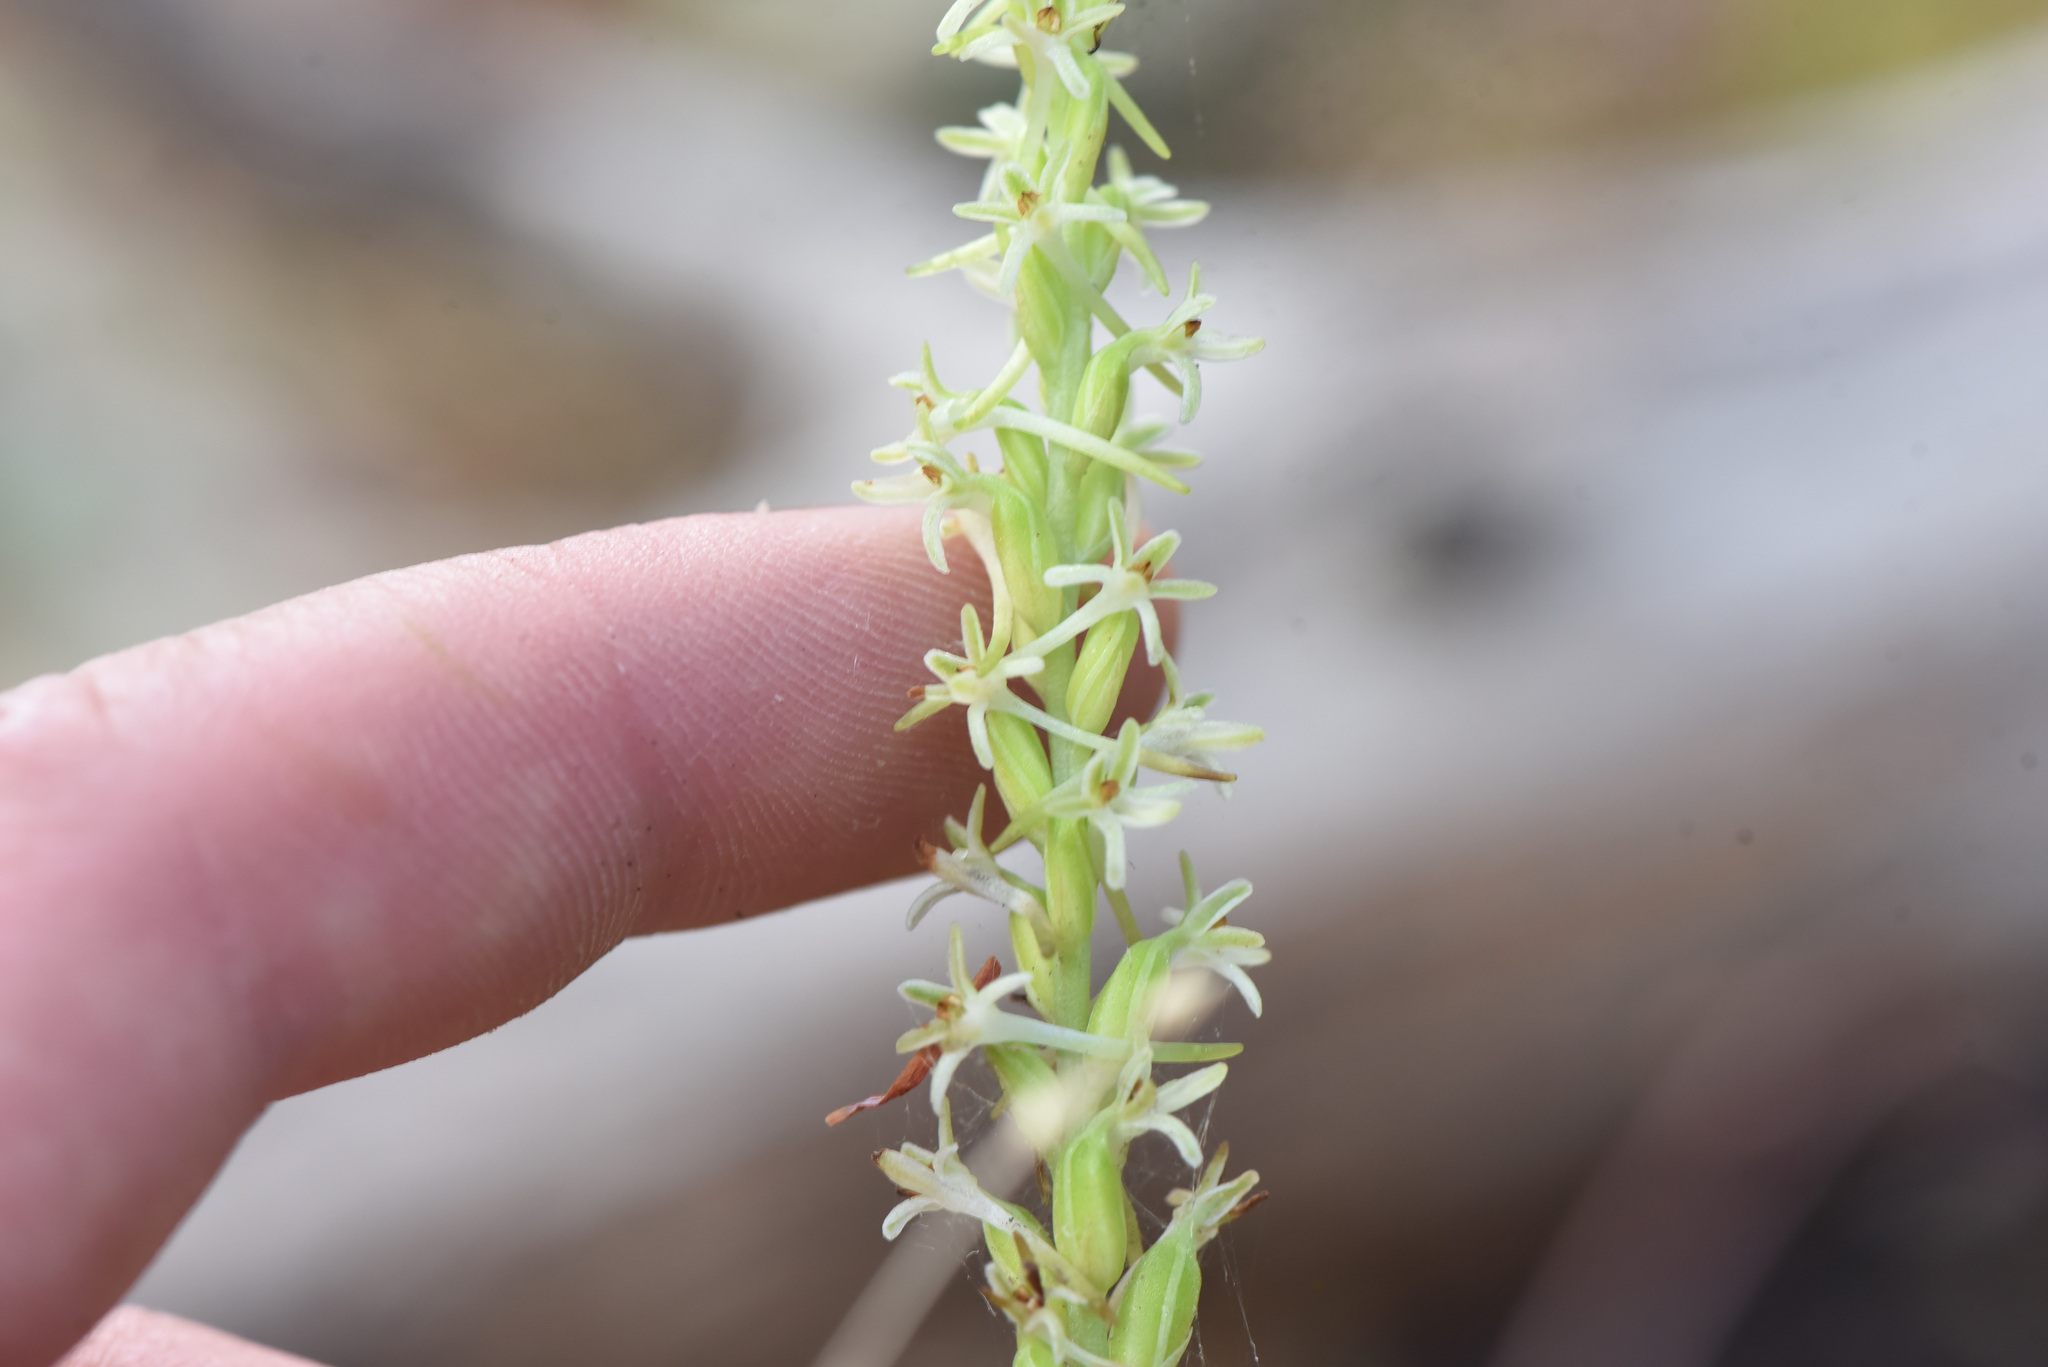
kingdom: Plantae
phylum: Tracheophyta
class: Liliopsida
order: Asparagales
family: Orchidaceae
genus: Platanthera
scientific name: Platanthera transversa
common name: Royal rein orchid
